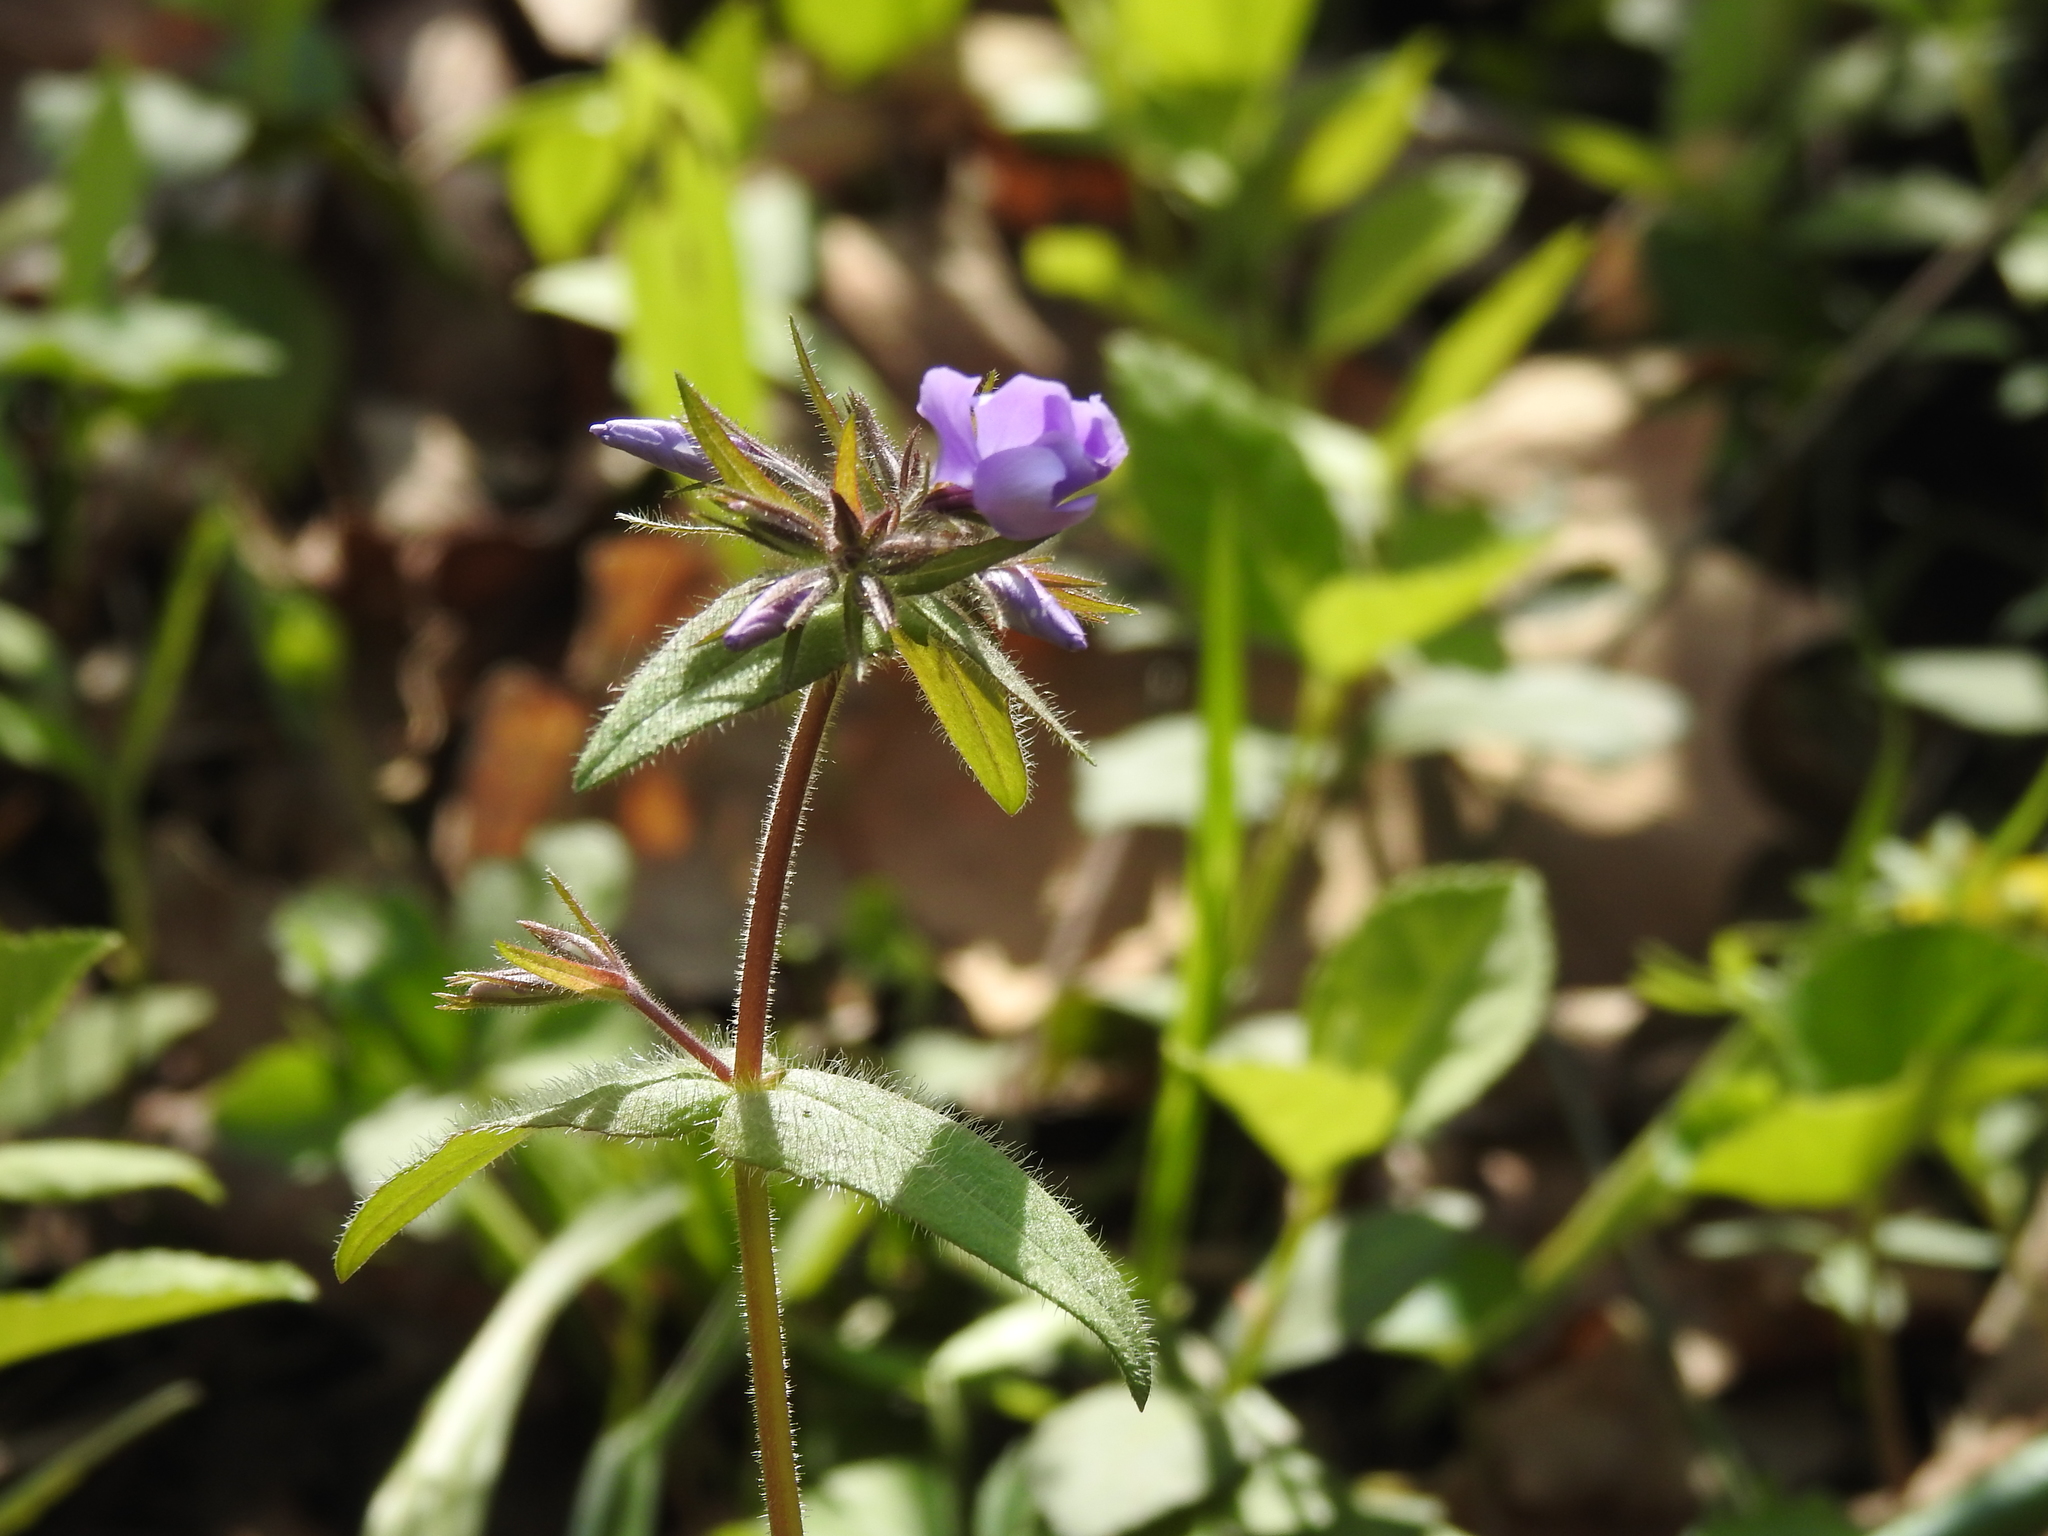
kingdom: Plantae
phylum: Tracheophyta
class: Magnoliopsida
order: Ericales
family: Polemoniaceae
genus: Phlox
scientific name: Phlox divaricata
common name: Blue phlox
